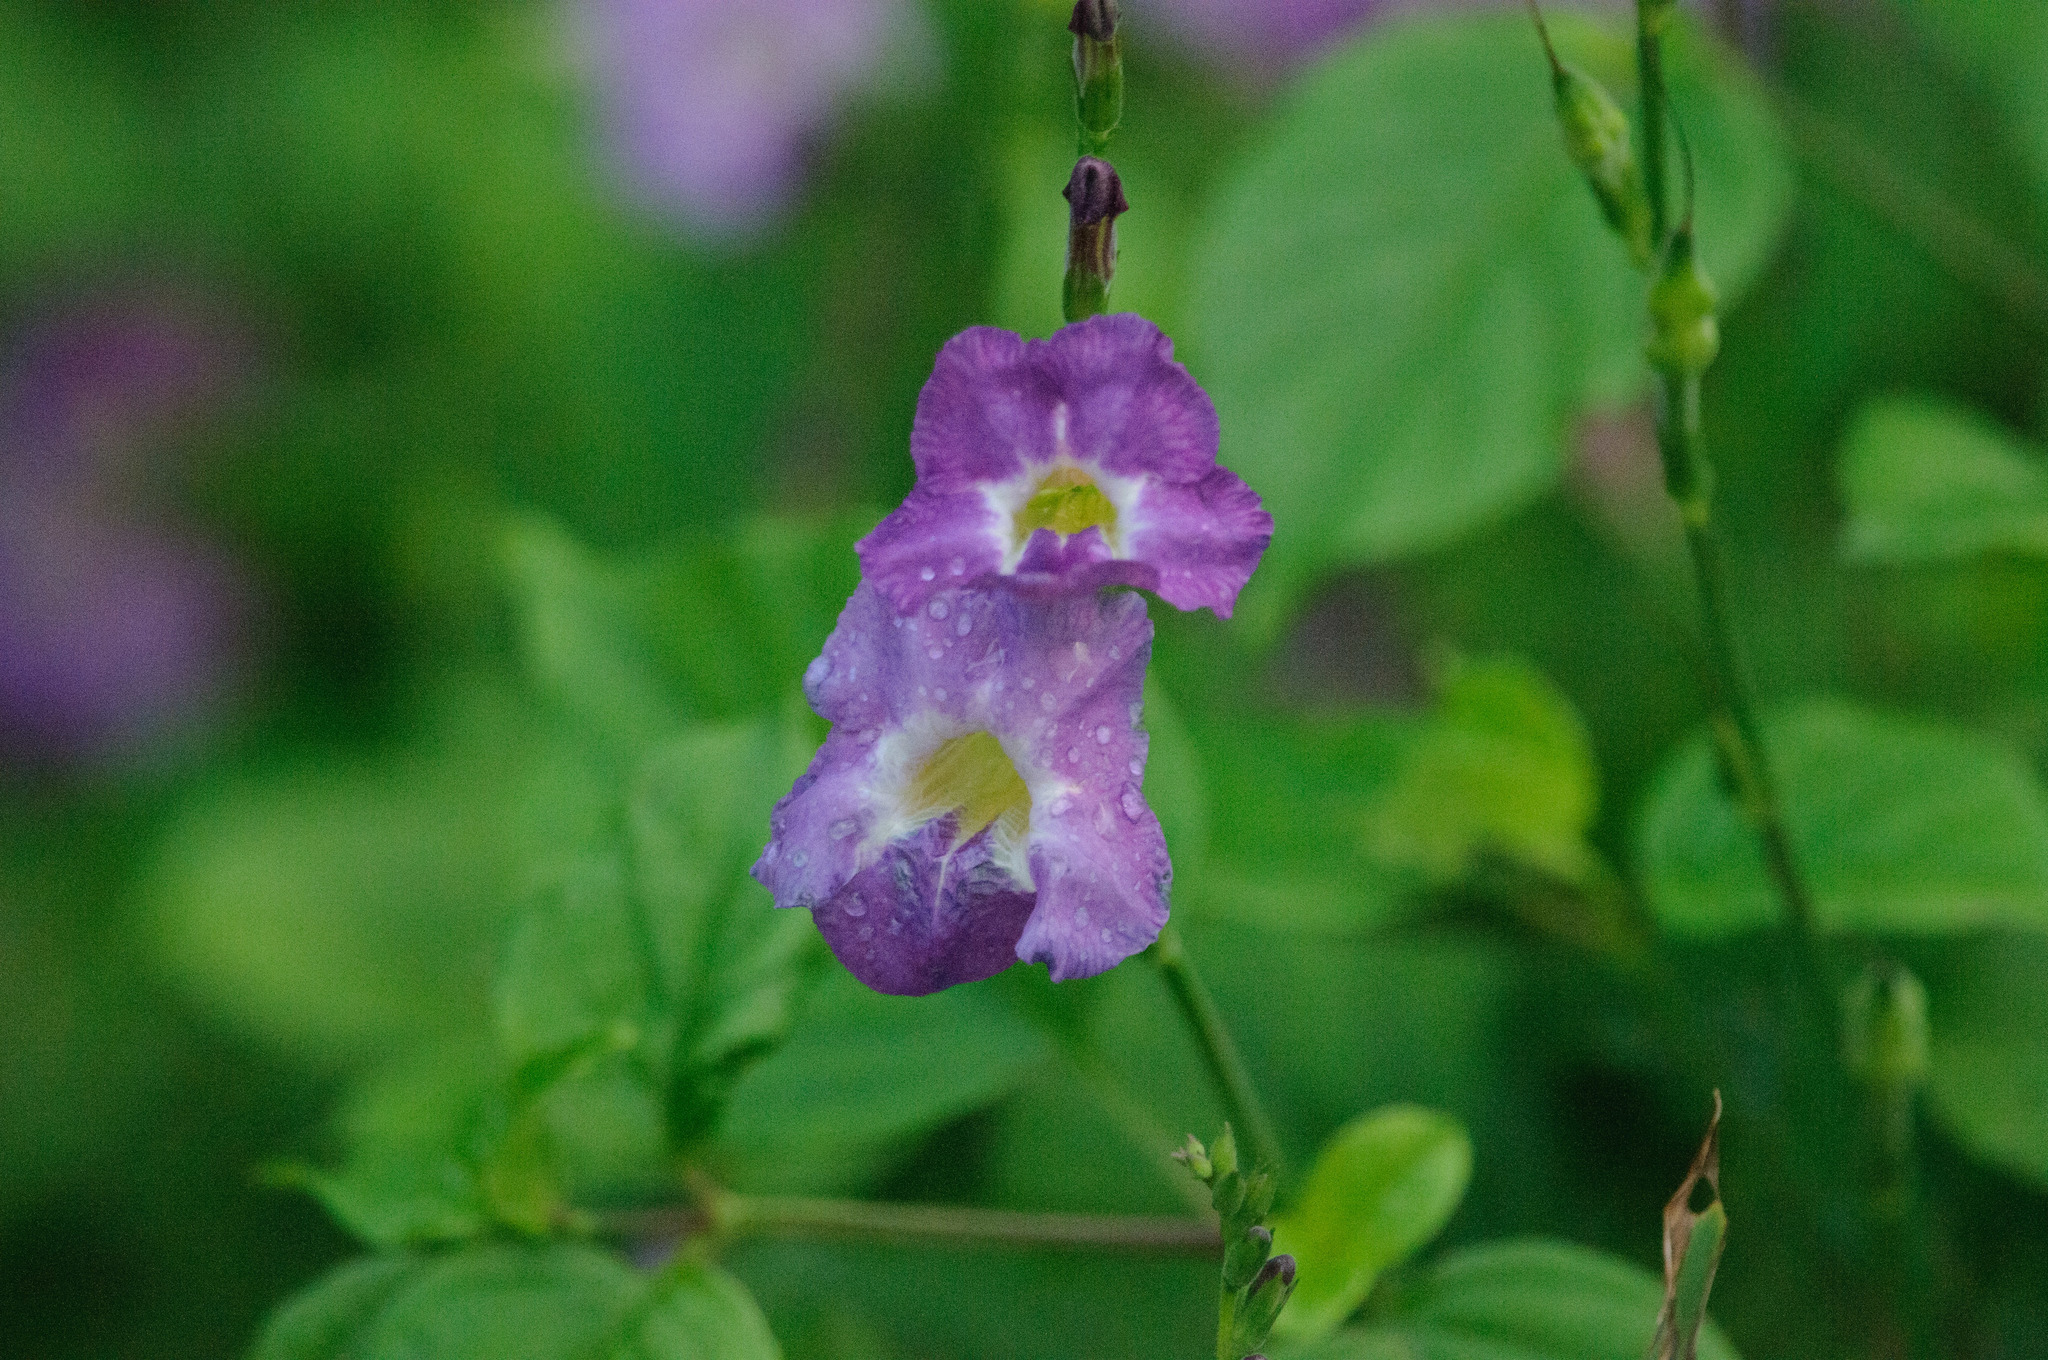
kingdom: Plantae
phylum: Tracheophyta
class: Magnoliopsida
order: Lamiales
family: Acanthaceae
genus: Asystasia
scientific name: Asystasia gangetica
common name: Chinese violet
